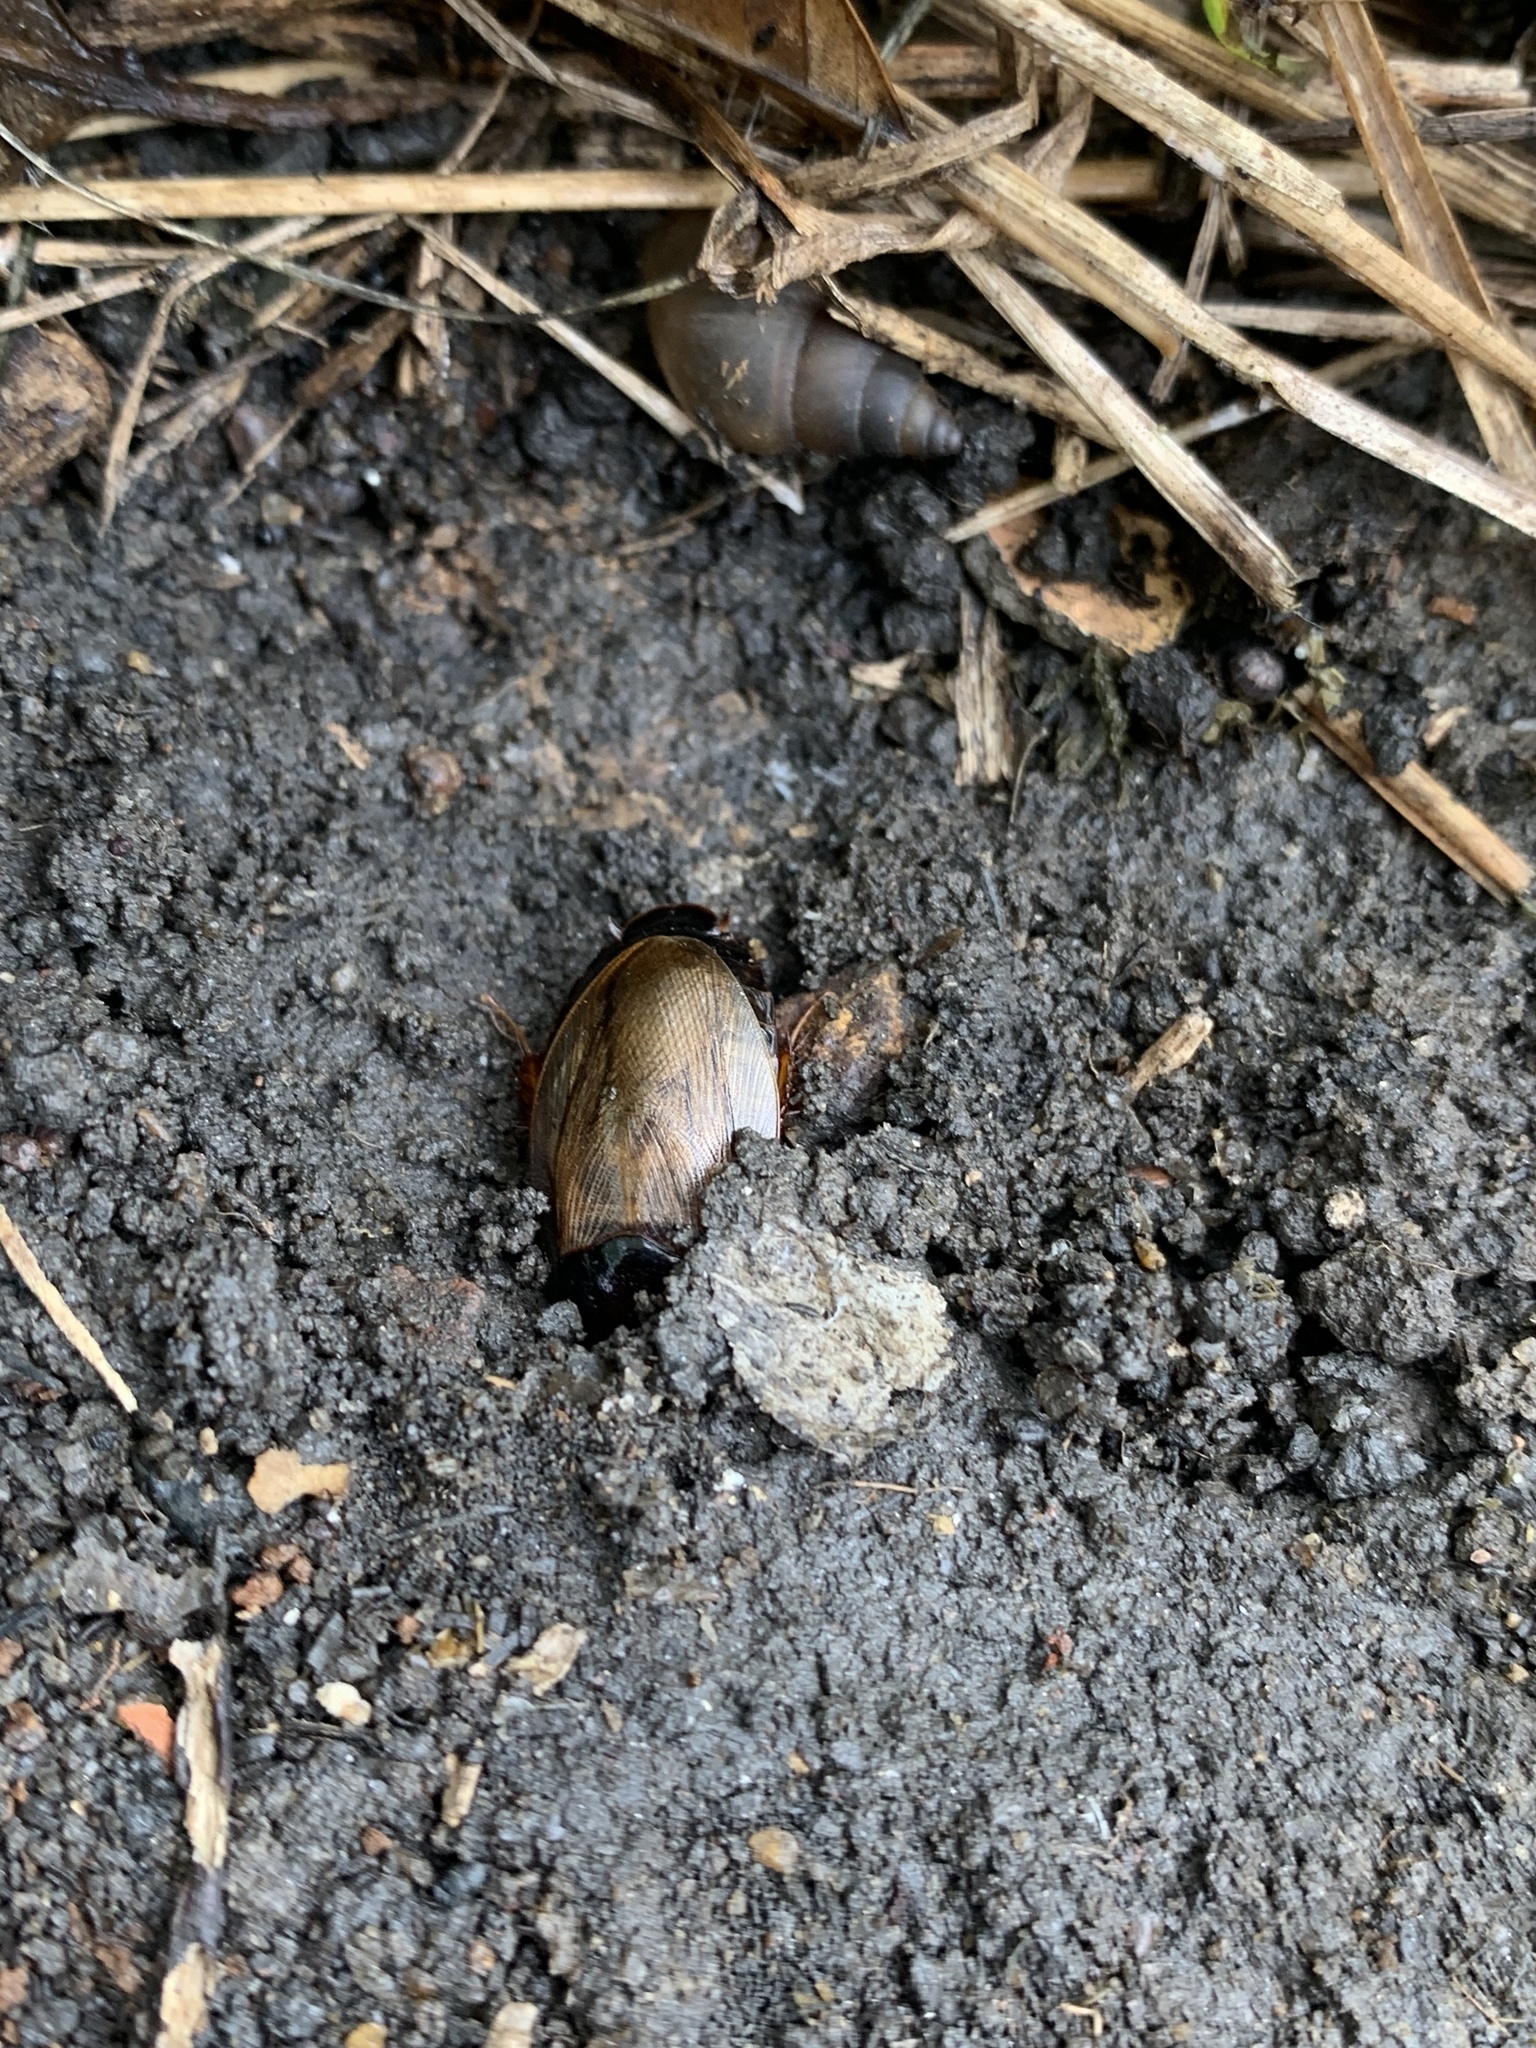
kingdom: Animalia
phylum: Arthropoda
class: Insecta
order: Blattodea
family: Blaberidae
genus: Pycnoscelus
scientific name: Pycnoscelus surinamensis
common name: Surinam cockroach
